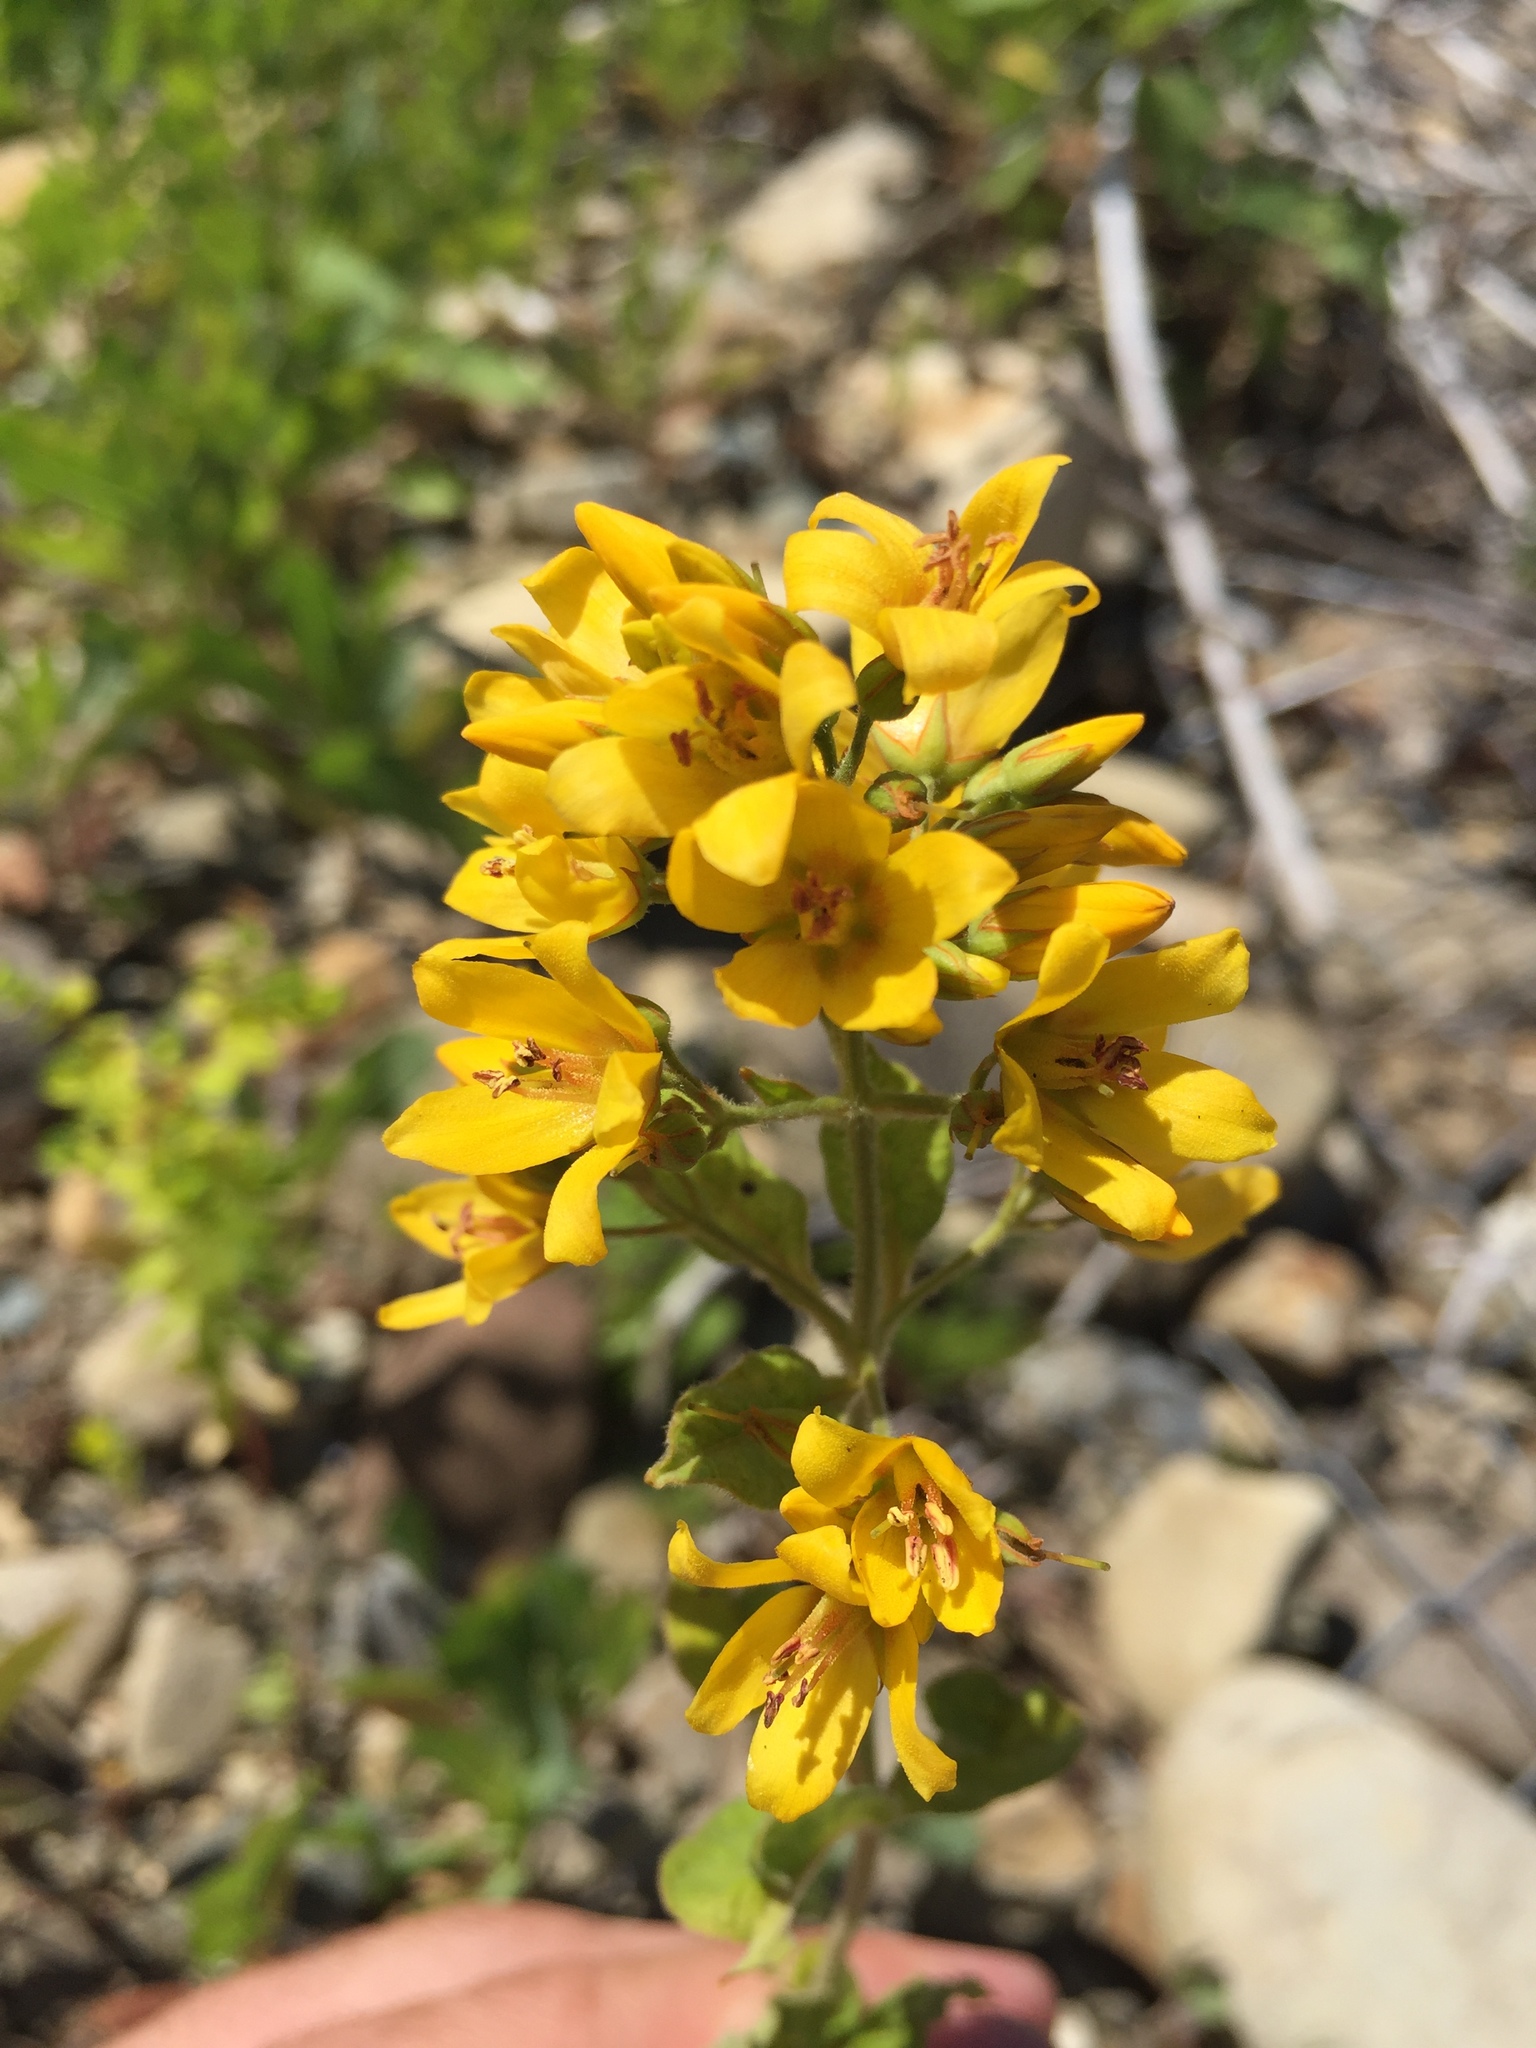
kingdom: Plantae
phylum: Tracheophyta
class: Magnoliopsida
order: Ericales
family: Primulaceae
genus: Lysimachia
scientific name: Lysimachia vulgaris
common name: Yellow loosestrife
